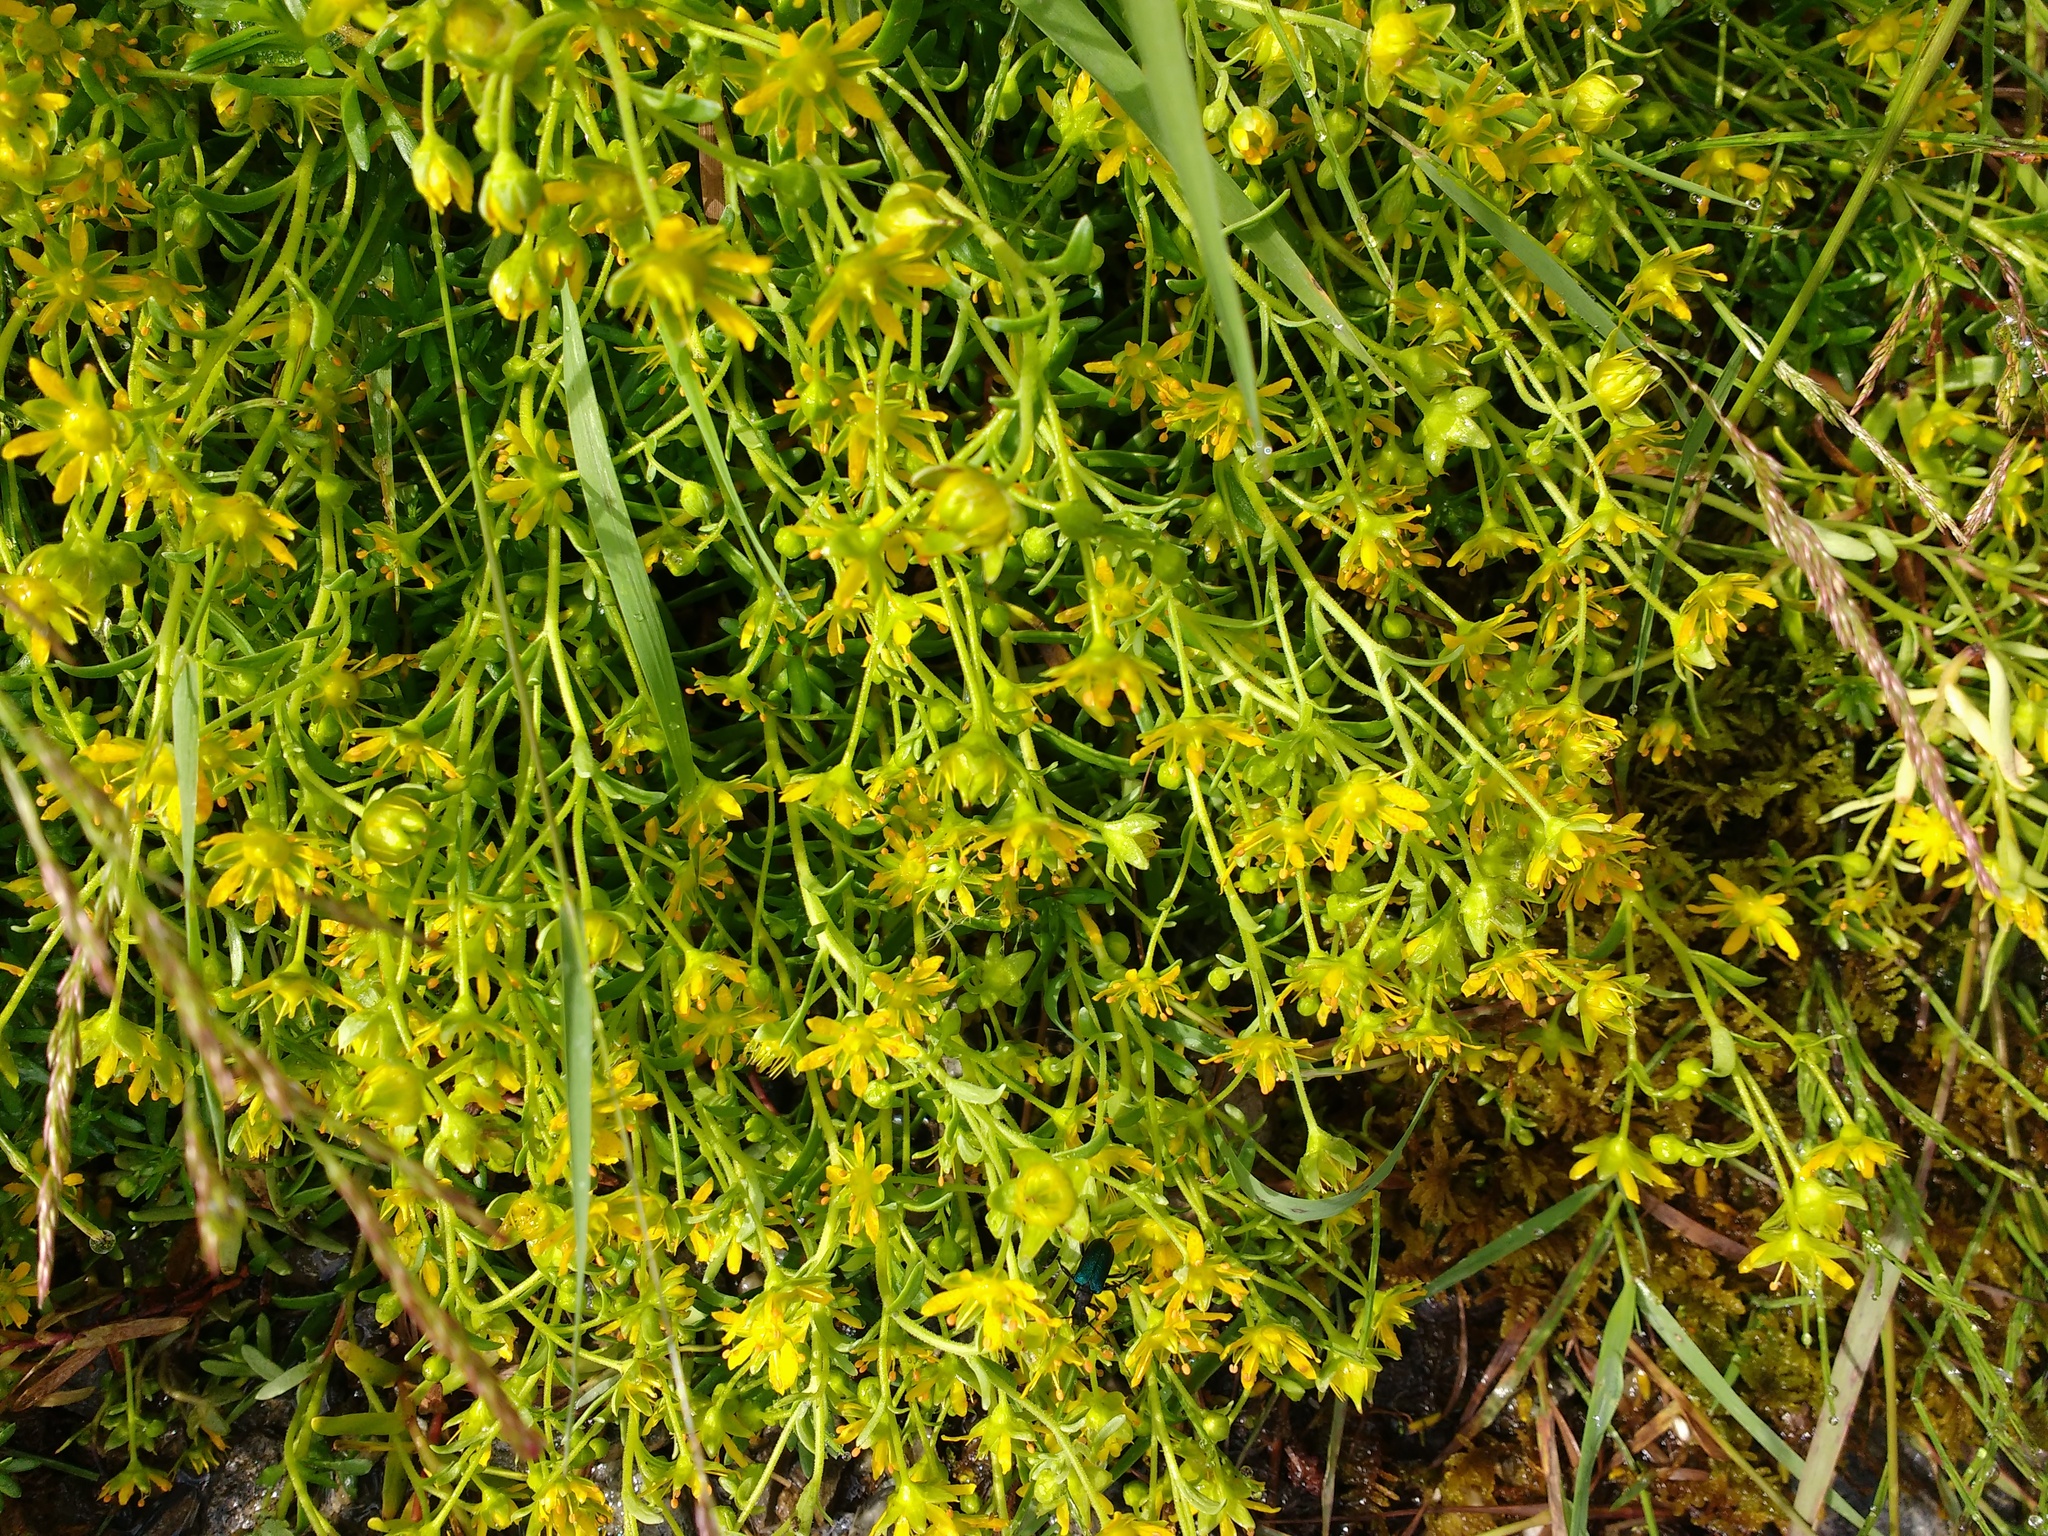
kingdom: Plantae
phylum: Tracheophyta
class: Magnoliopsida
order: Saxifragales
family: Saxifragaceae
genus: Saxifraga
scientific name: Saxifraga aizoides
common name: Yellow mountain saxifrage
